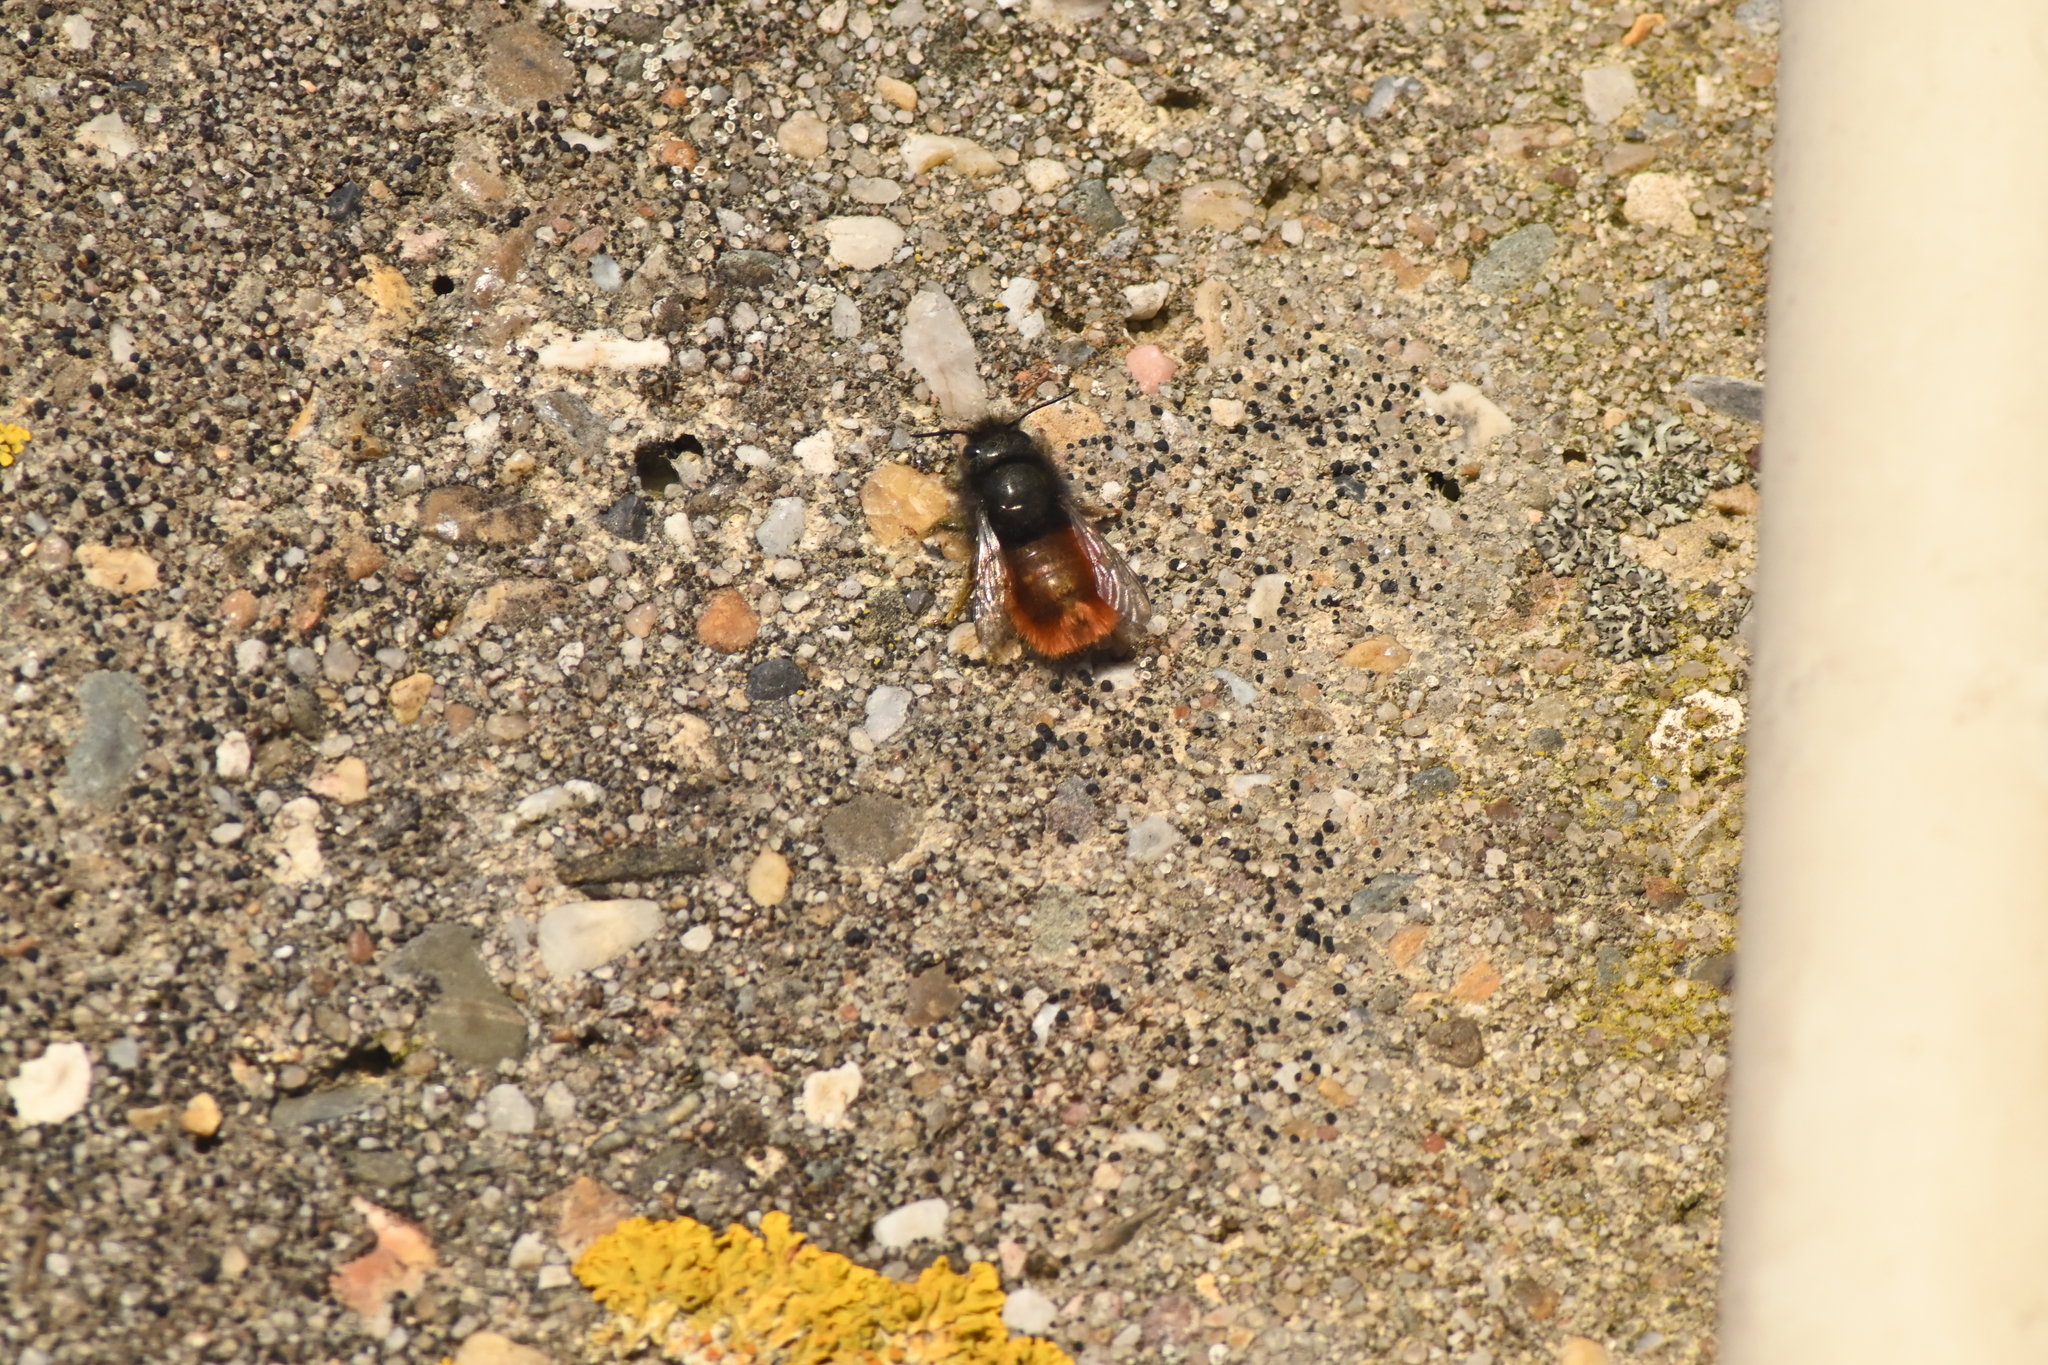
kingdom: Animalia
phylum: Arthropoda
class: Insecta
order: Hymenoptera
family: Megachilidae
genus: Osmia
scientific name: Osmia cornuta
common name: Mason bee
